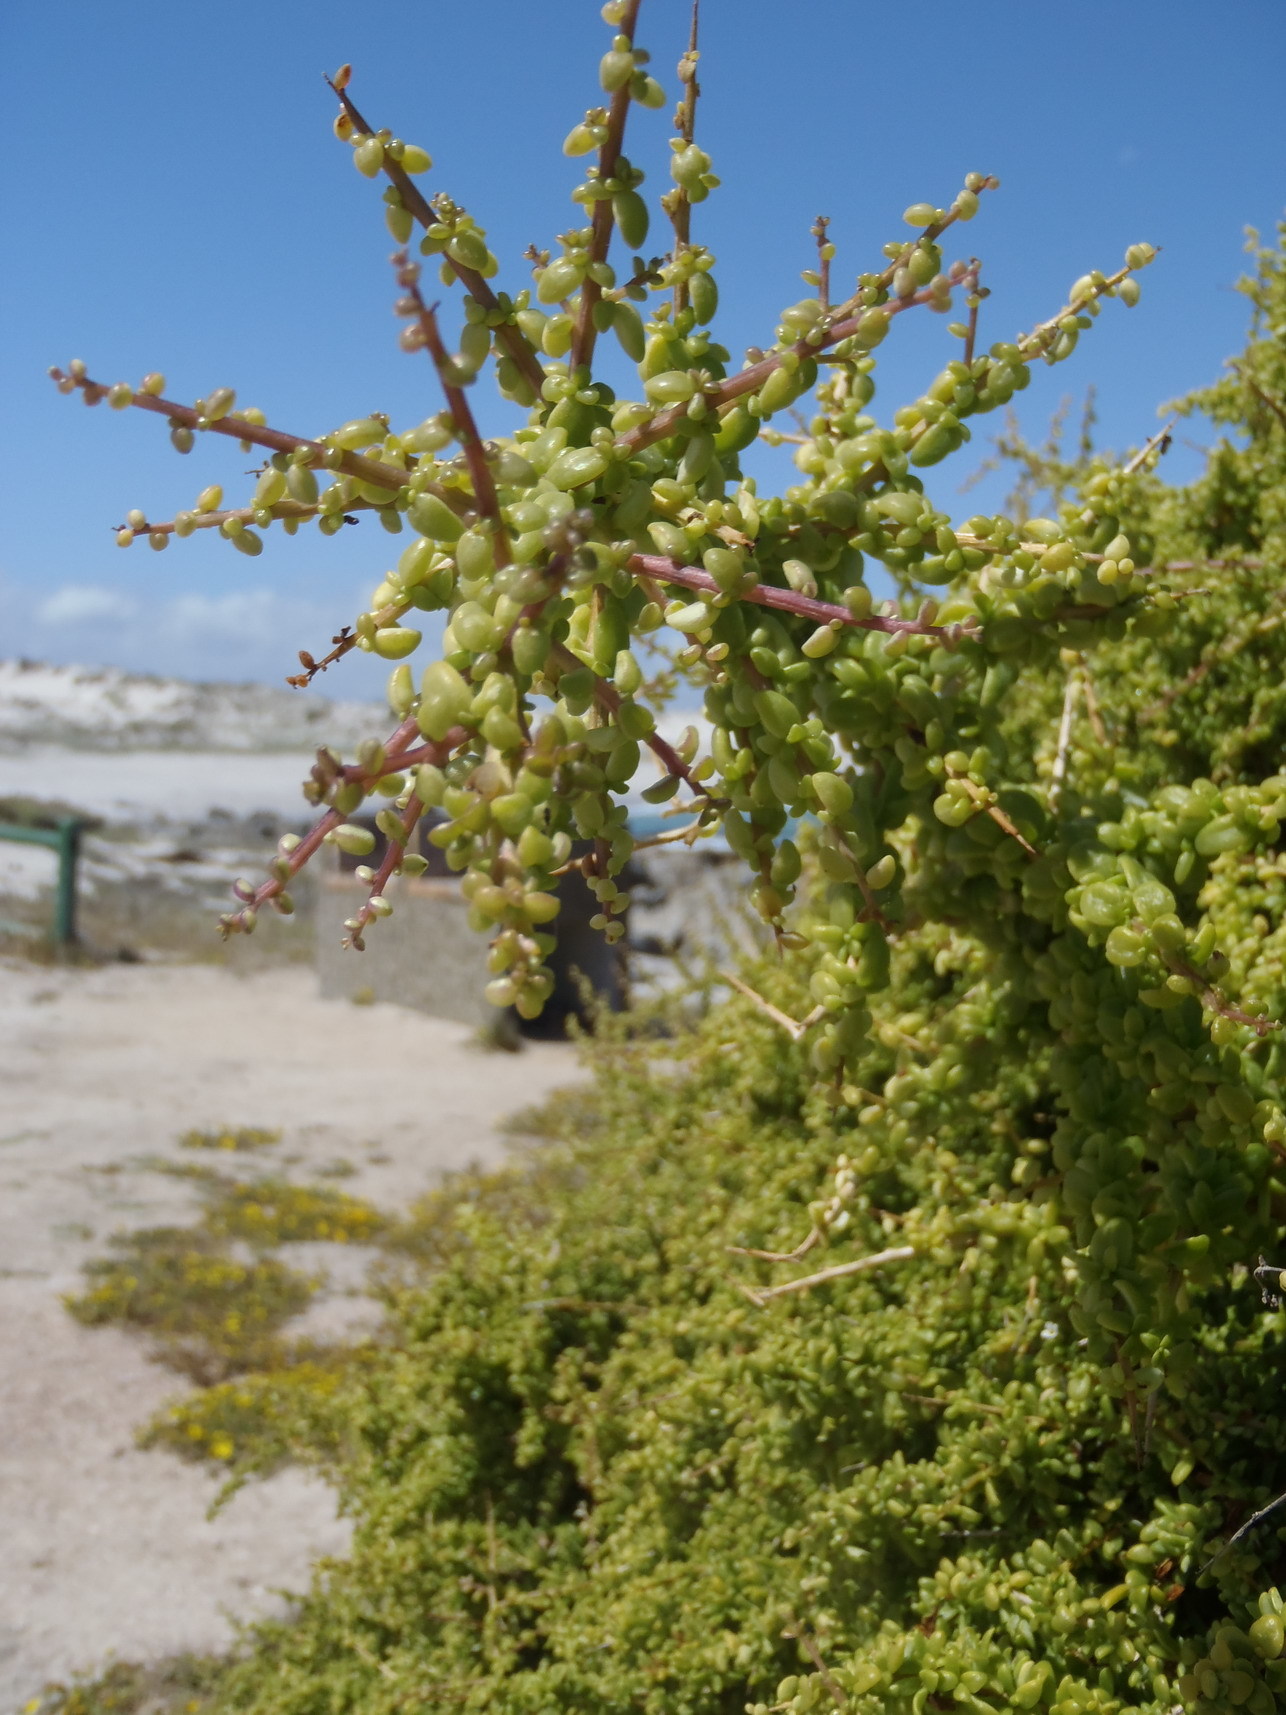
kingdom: Plantae
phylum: Tracheophyta
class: Magnoliopsida
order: Solanales
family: Solanaceae
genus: Lycium
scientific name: Lycium tetrandrum
